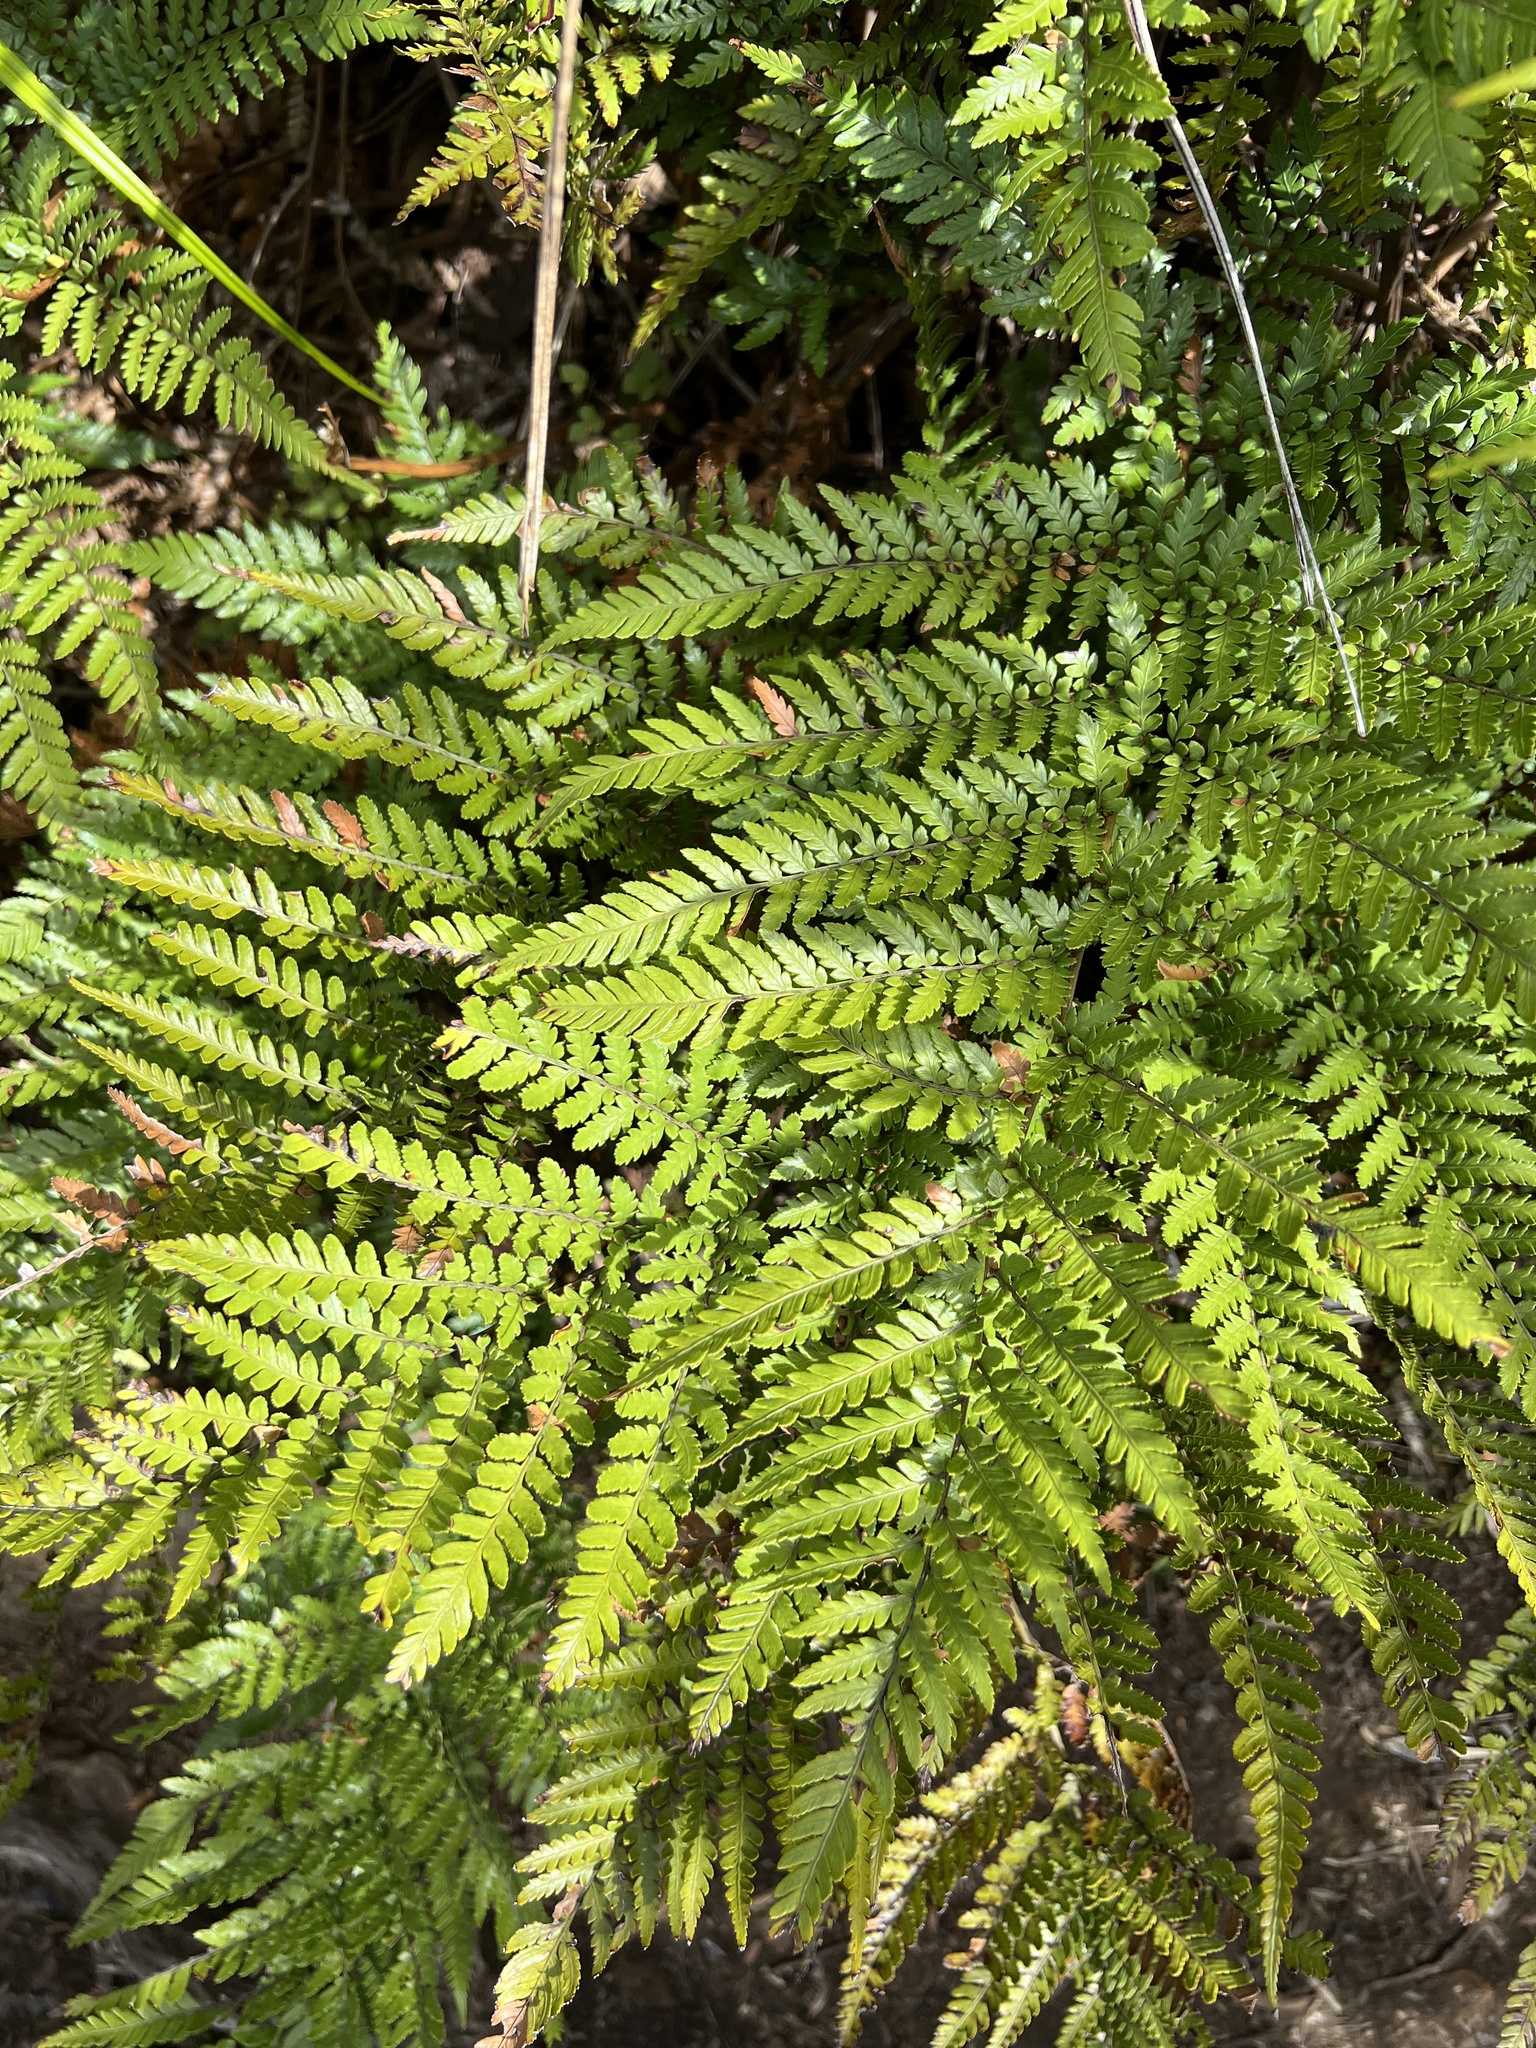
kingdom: Plantae
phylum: Tracheophyta
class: Polypodiopsida
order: Cyatheales
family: Dicksoniaceae
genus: Dicksonia
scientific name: Dicksonia lanata
